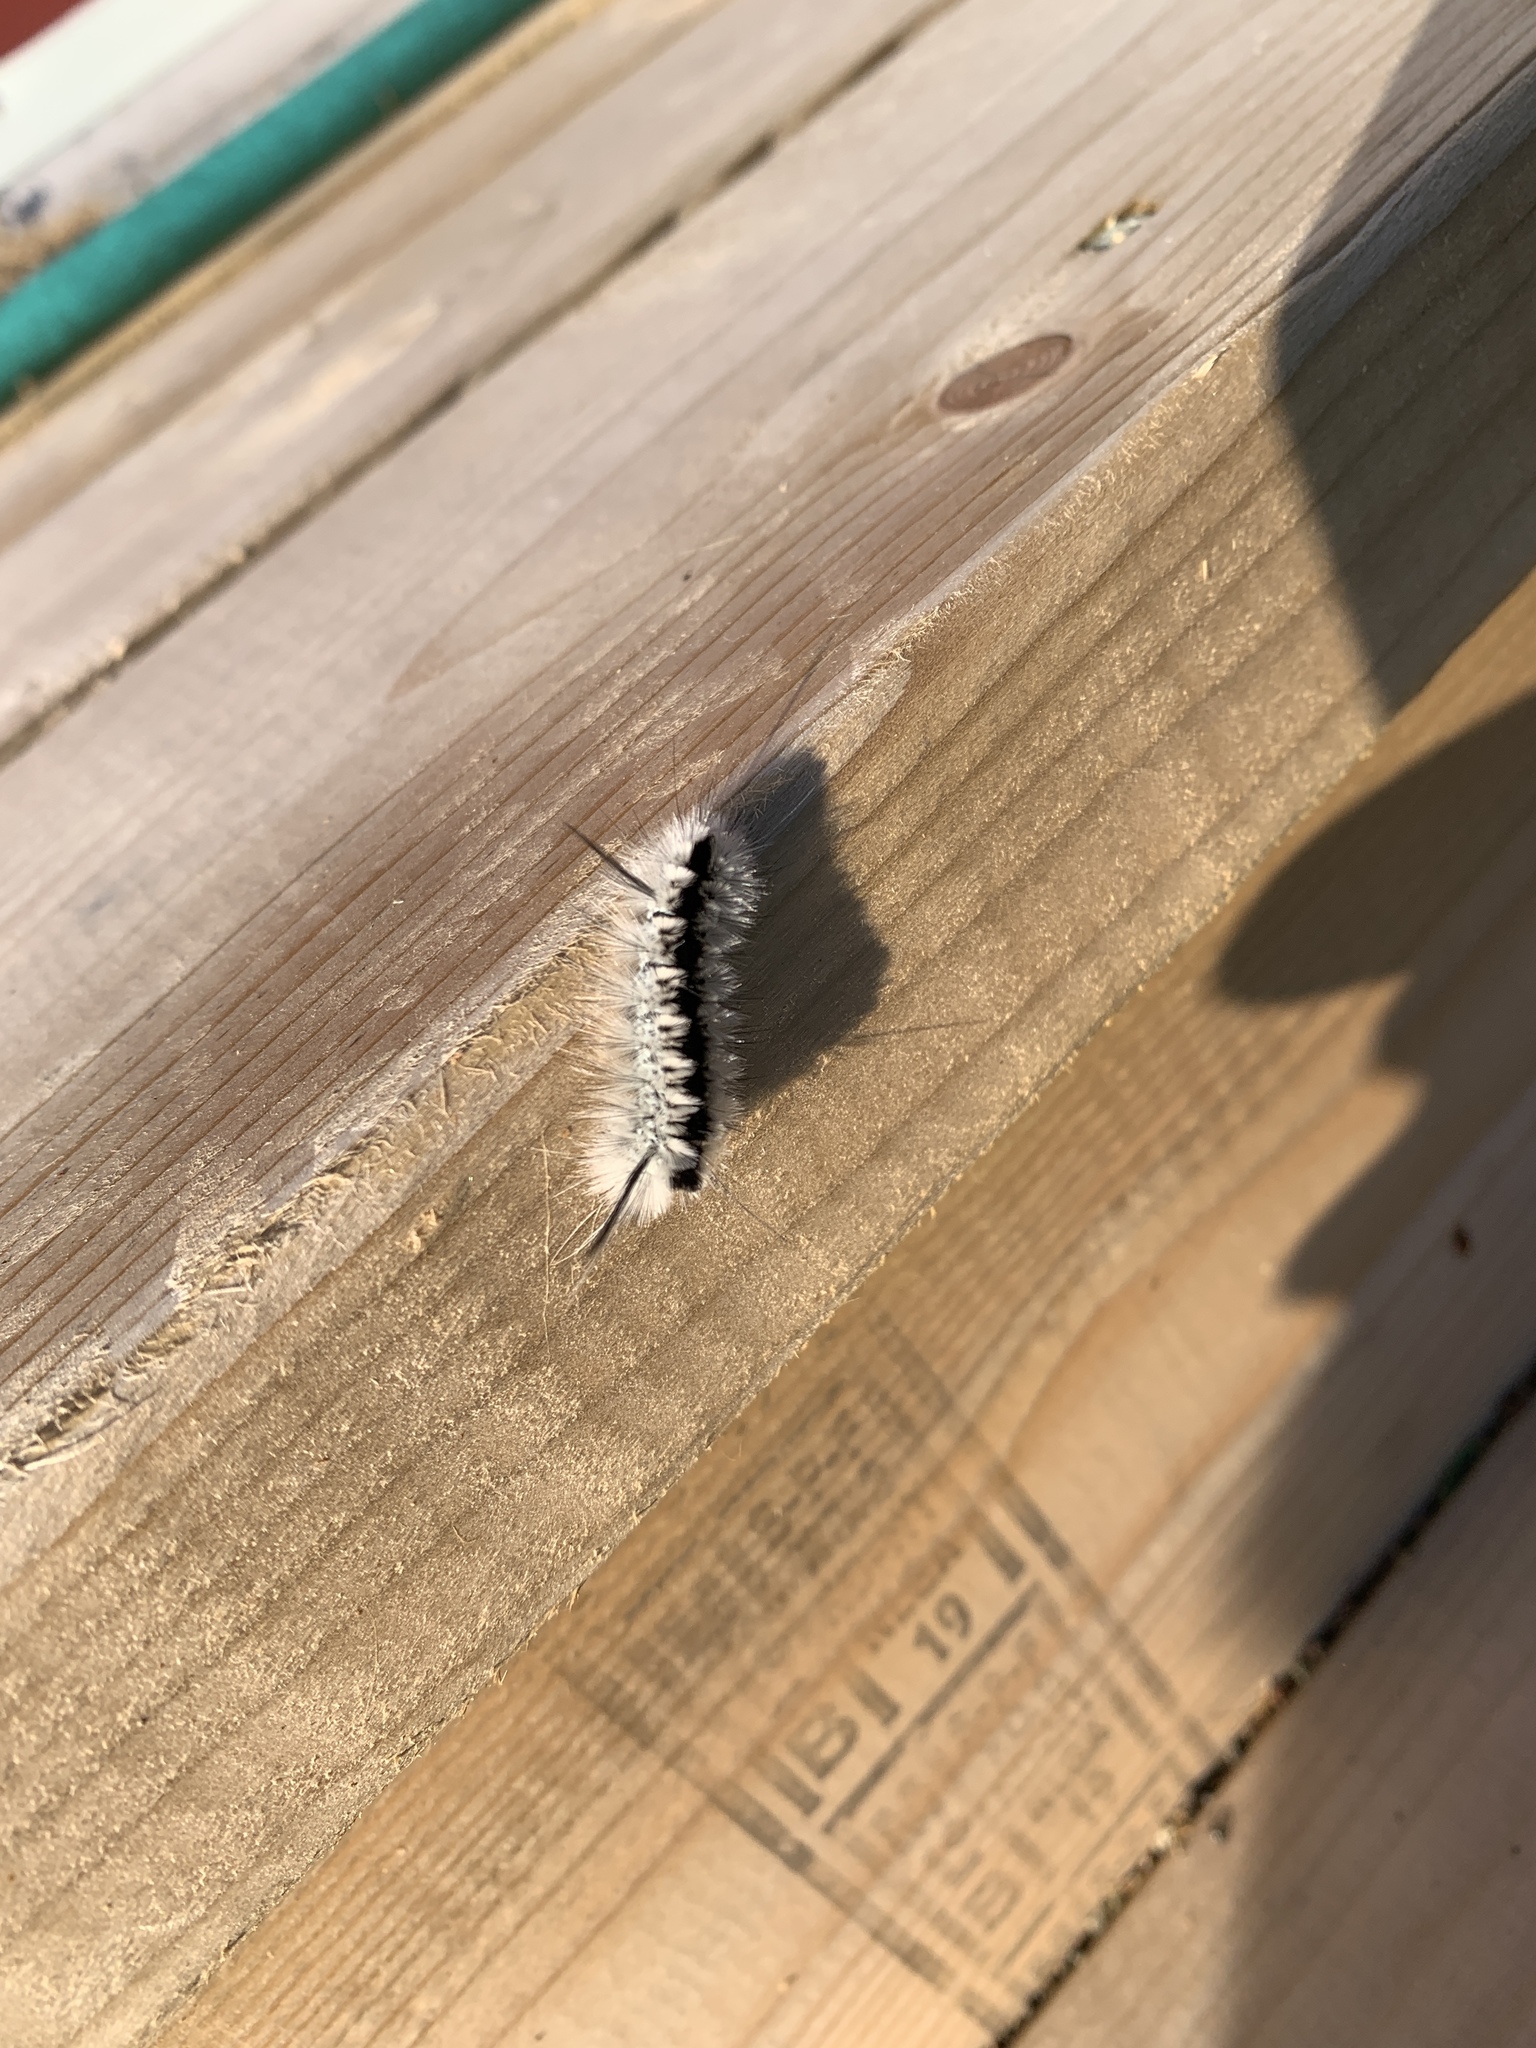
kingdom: Animalia
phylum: Arthropoda
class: Insecta
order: Lepidoptera
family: Erebidae
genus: Lophocampa
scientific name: Lophocampa caryae
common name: Hickory tussock moth
